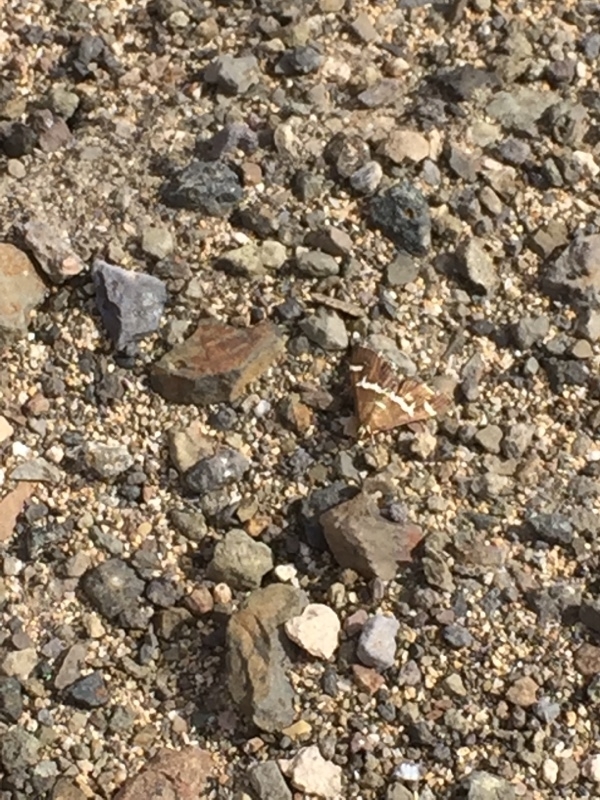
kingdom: Animalia
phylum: Arthropoda
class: Insecta
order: Lepidoptera
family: Crambidae
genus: Spoladea
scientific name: Spoladea recurvalis
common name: Beet webworm moth
